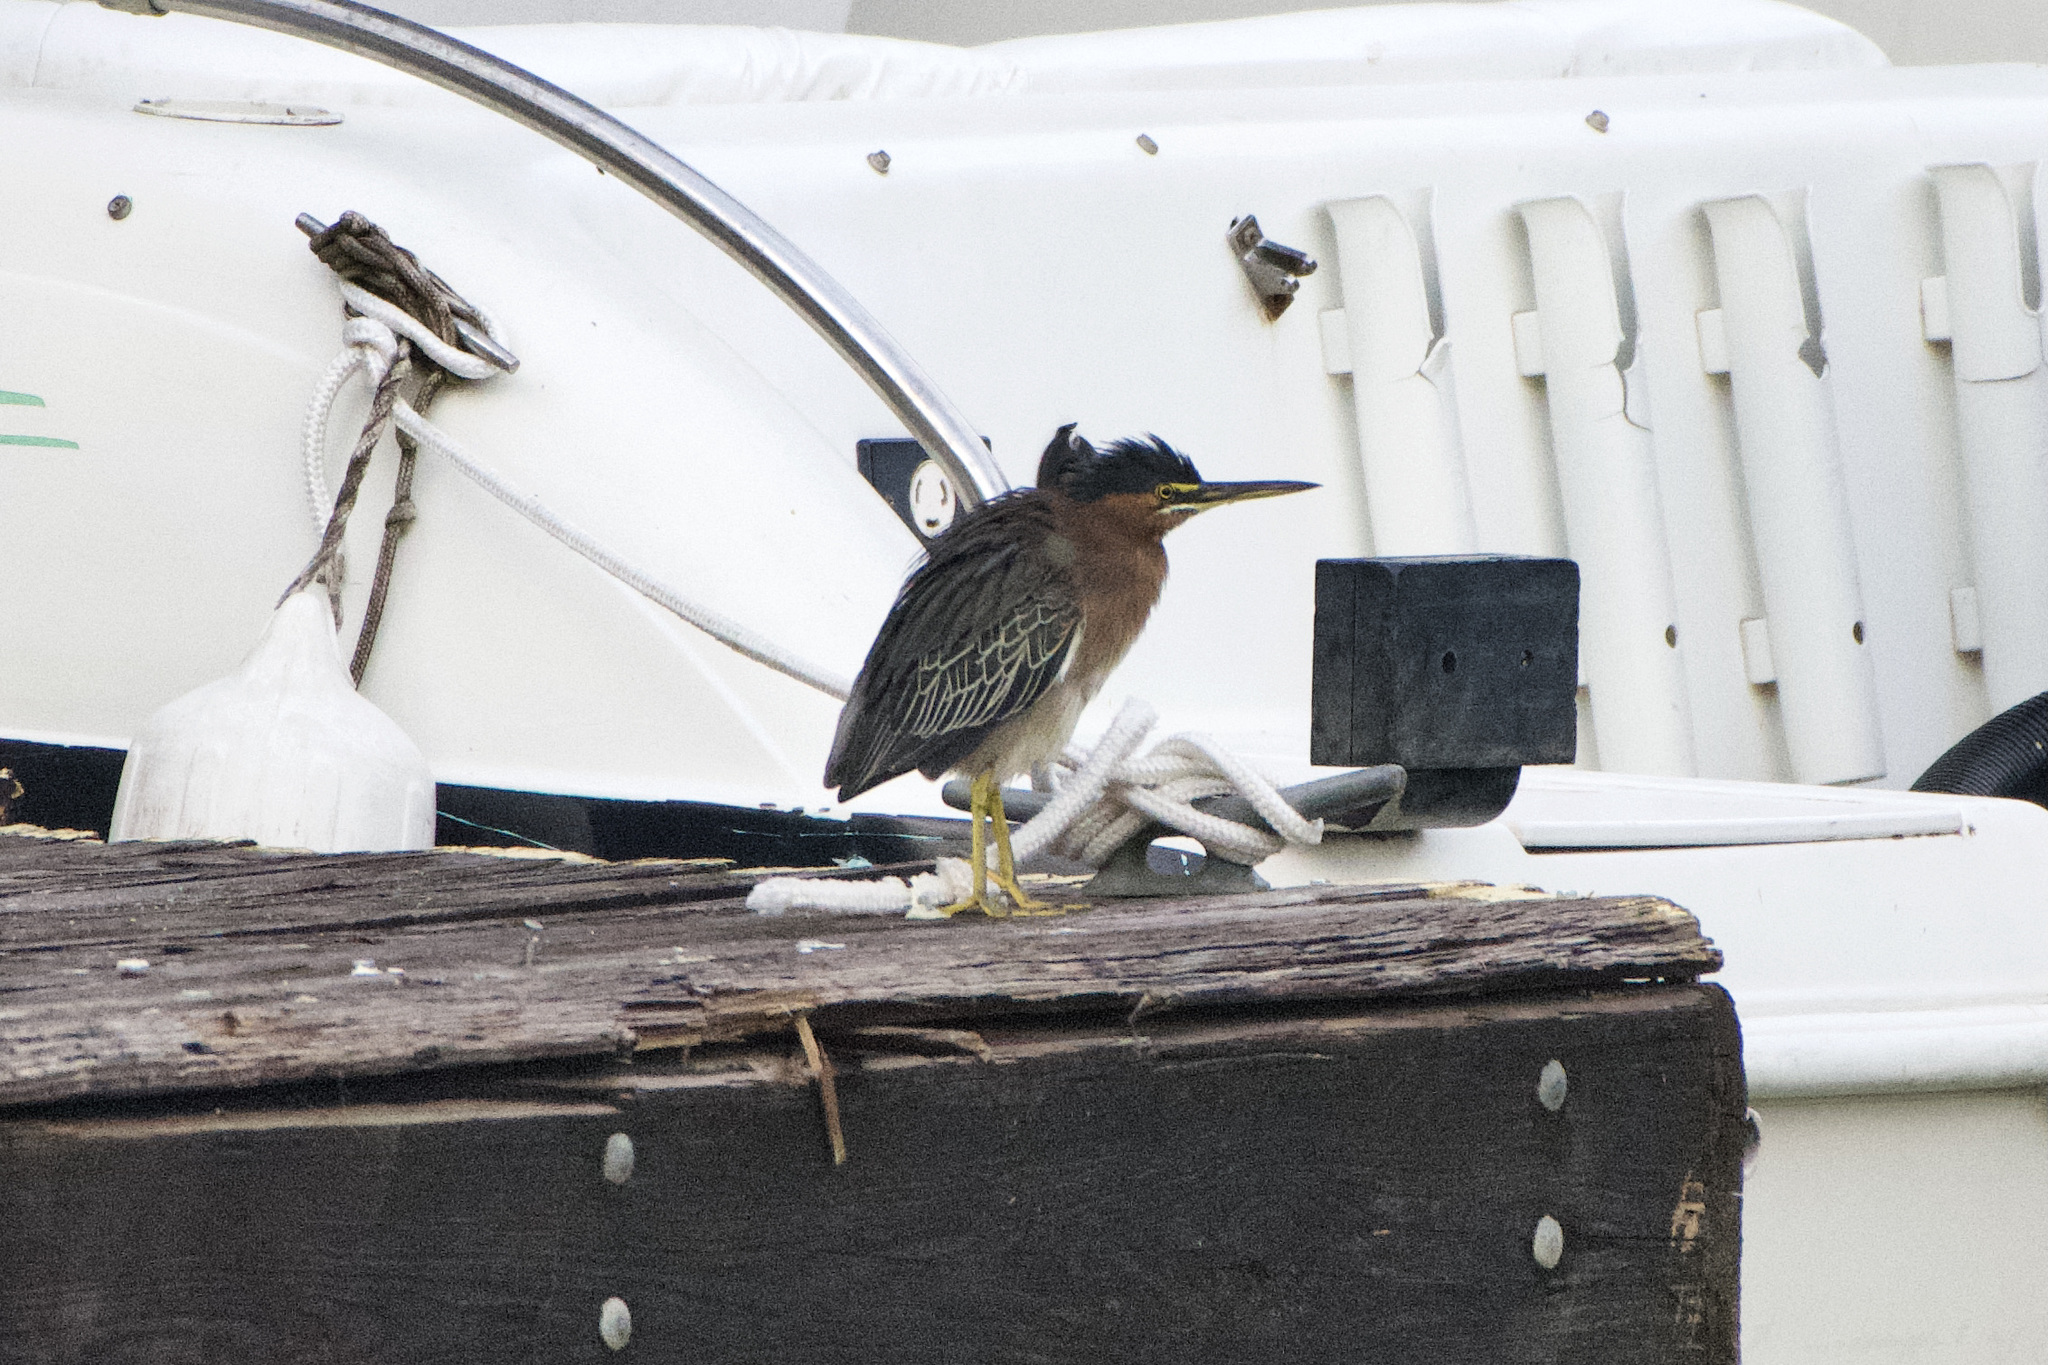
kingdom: Animalia
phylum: Chordata
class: Aves
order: Pelecaniformes
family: Ardeidae
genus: Butorides
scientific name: Butorides virescens
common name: Green heron
